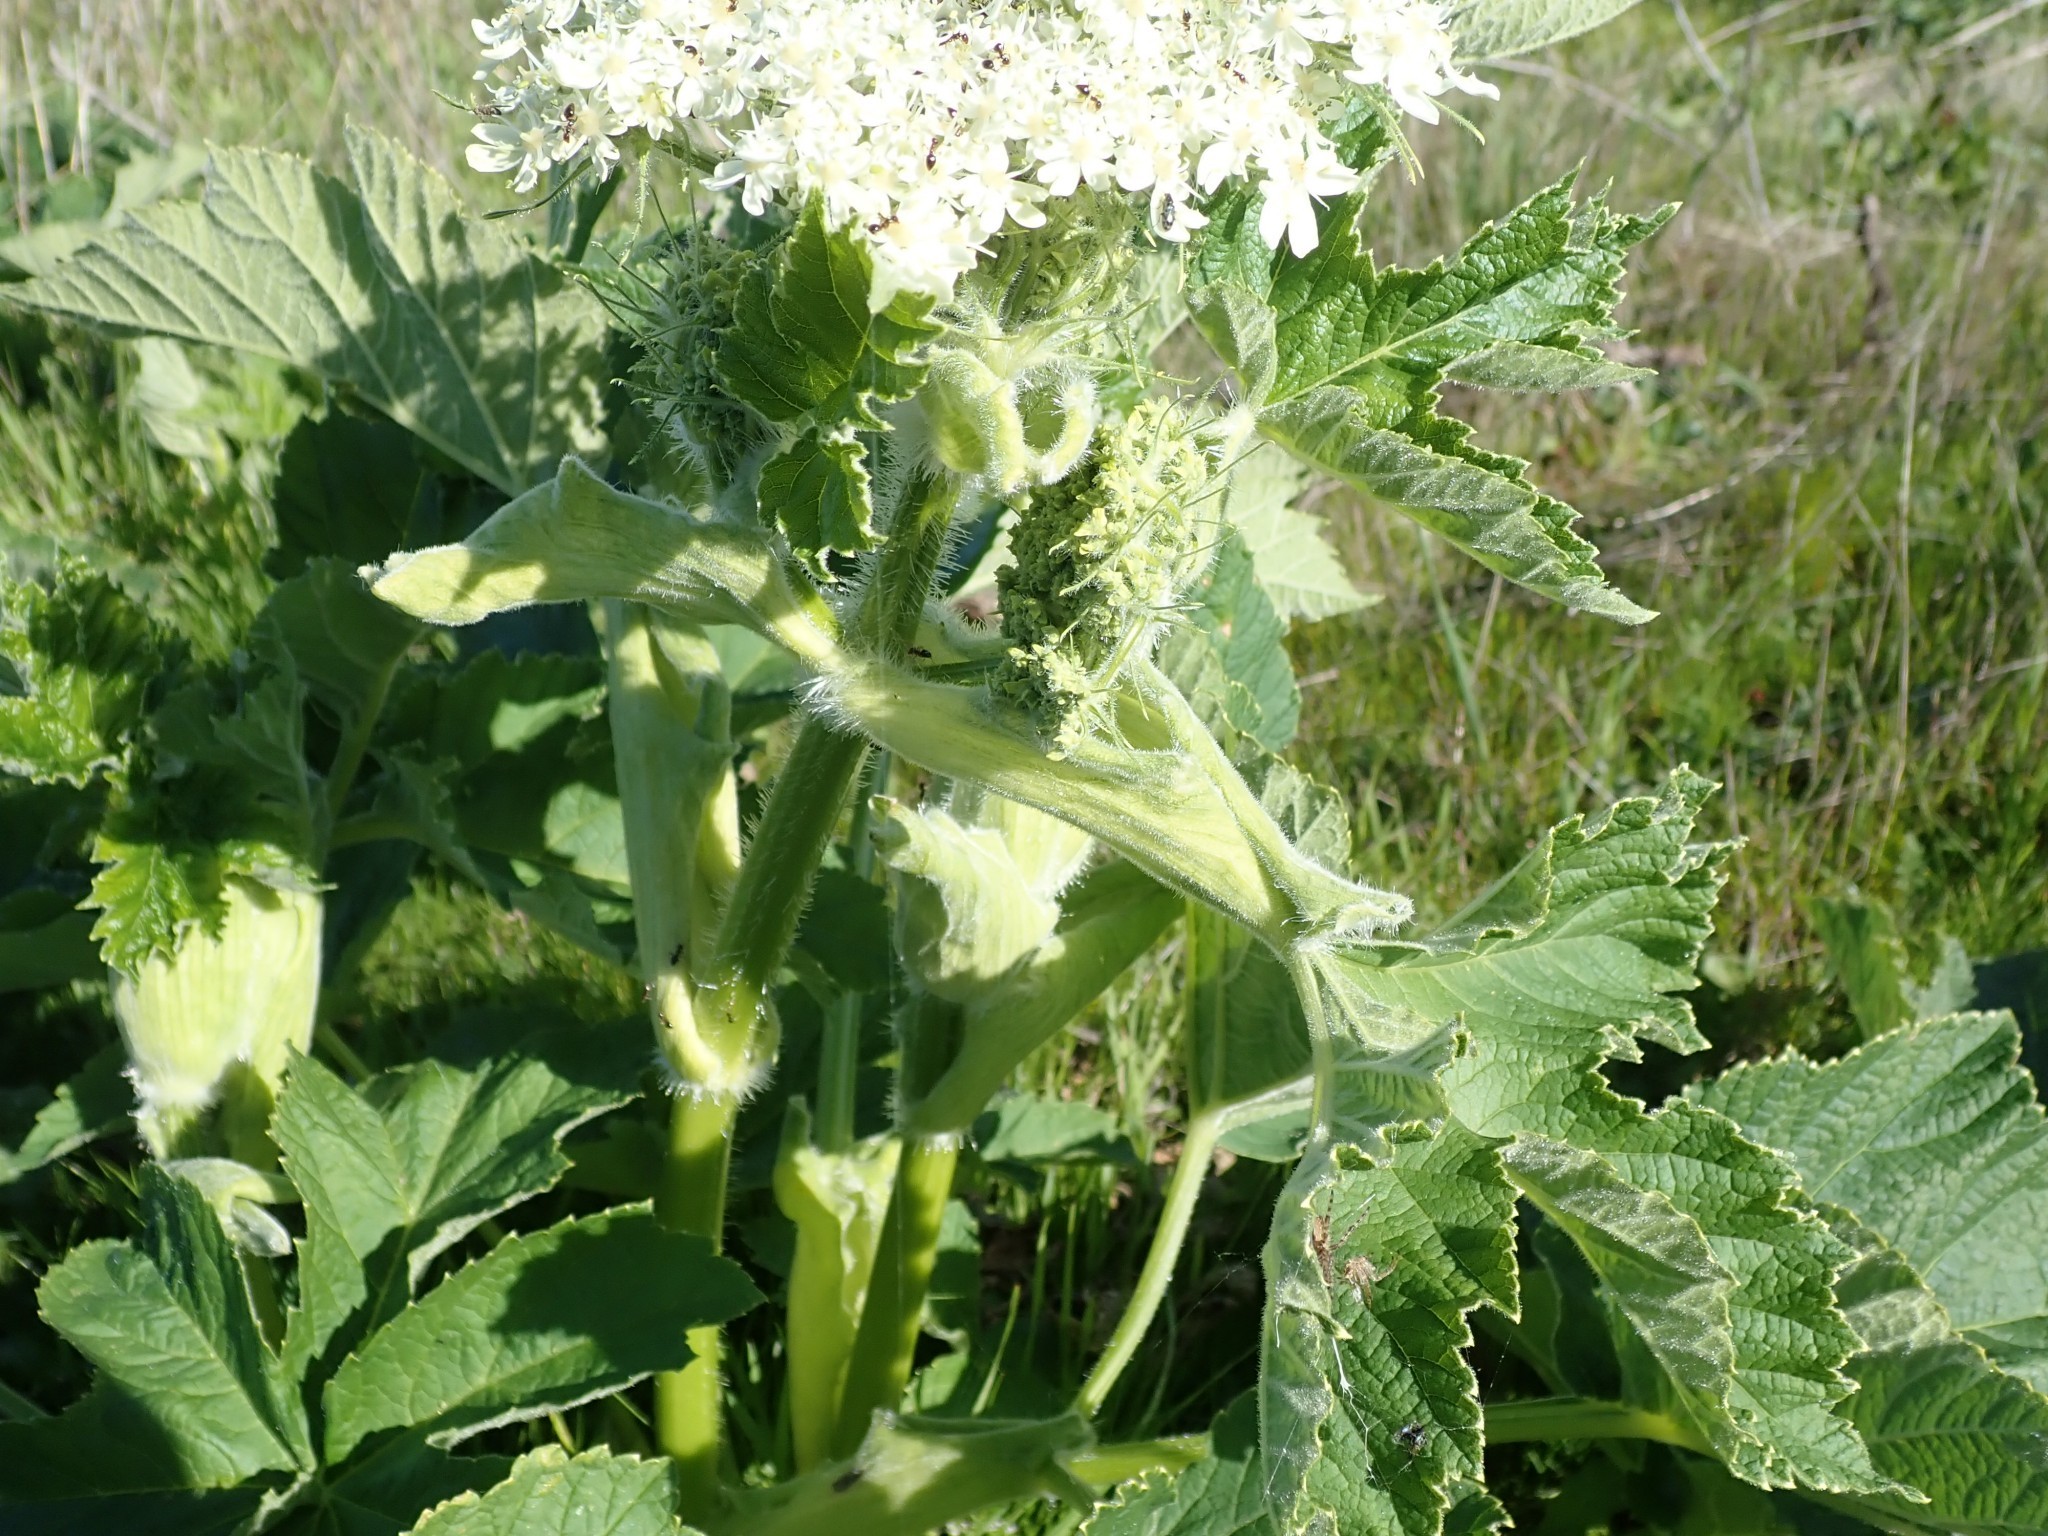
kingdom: Plantae
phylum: Tracheophyta
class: Magnoliopsida
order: Apiales
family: Apiaceae
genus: Heracleum
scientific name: Heracleum maximum
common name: American cow parsnip
